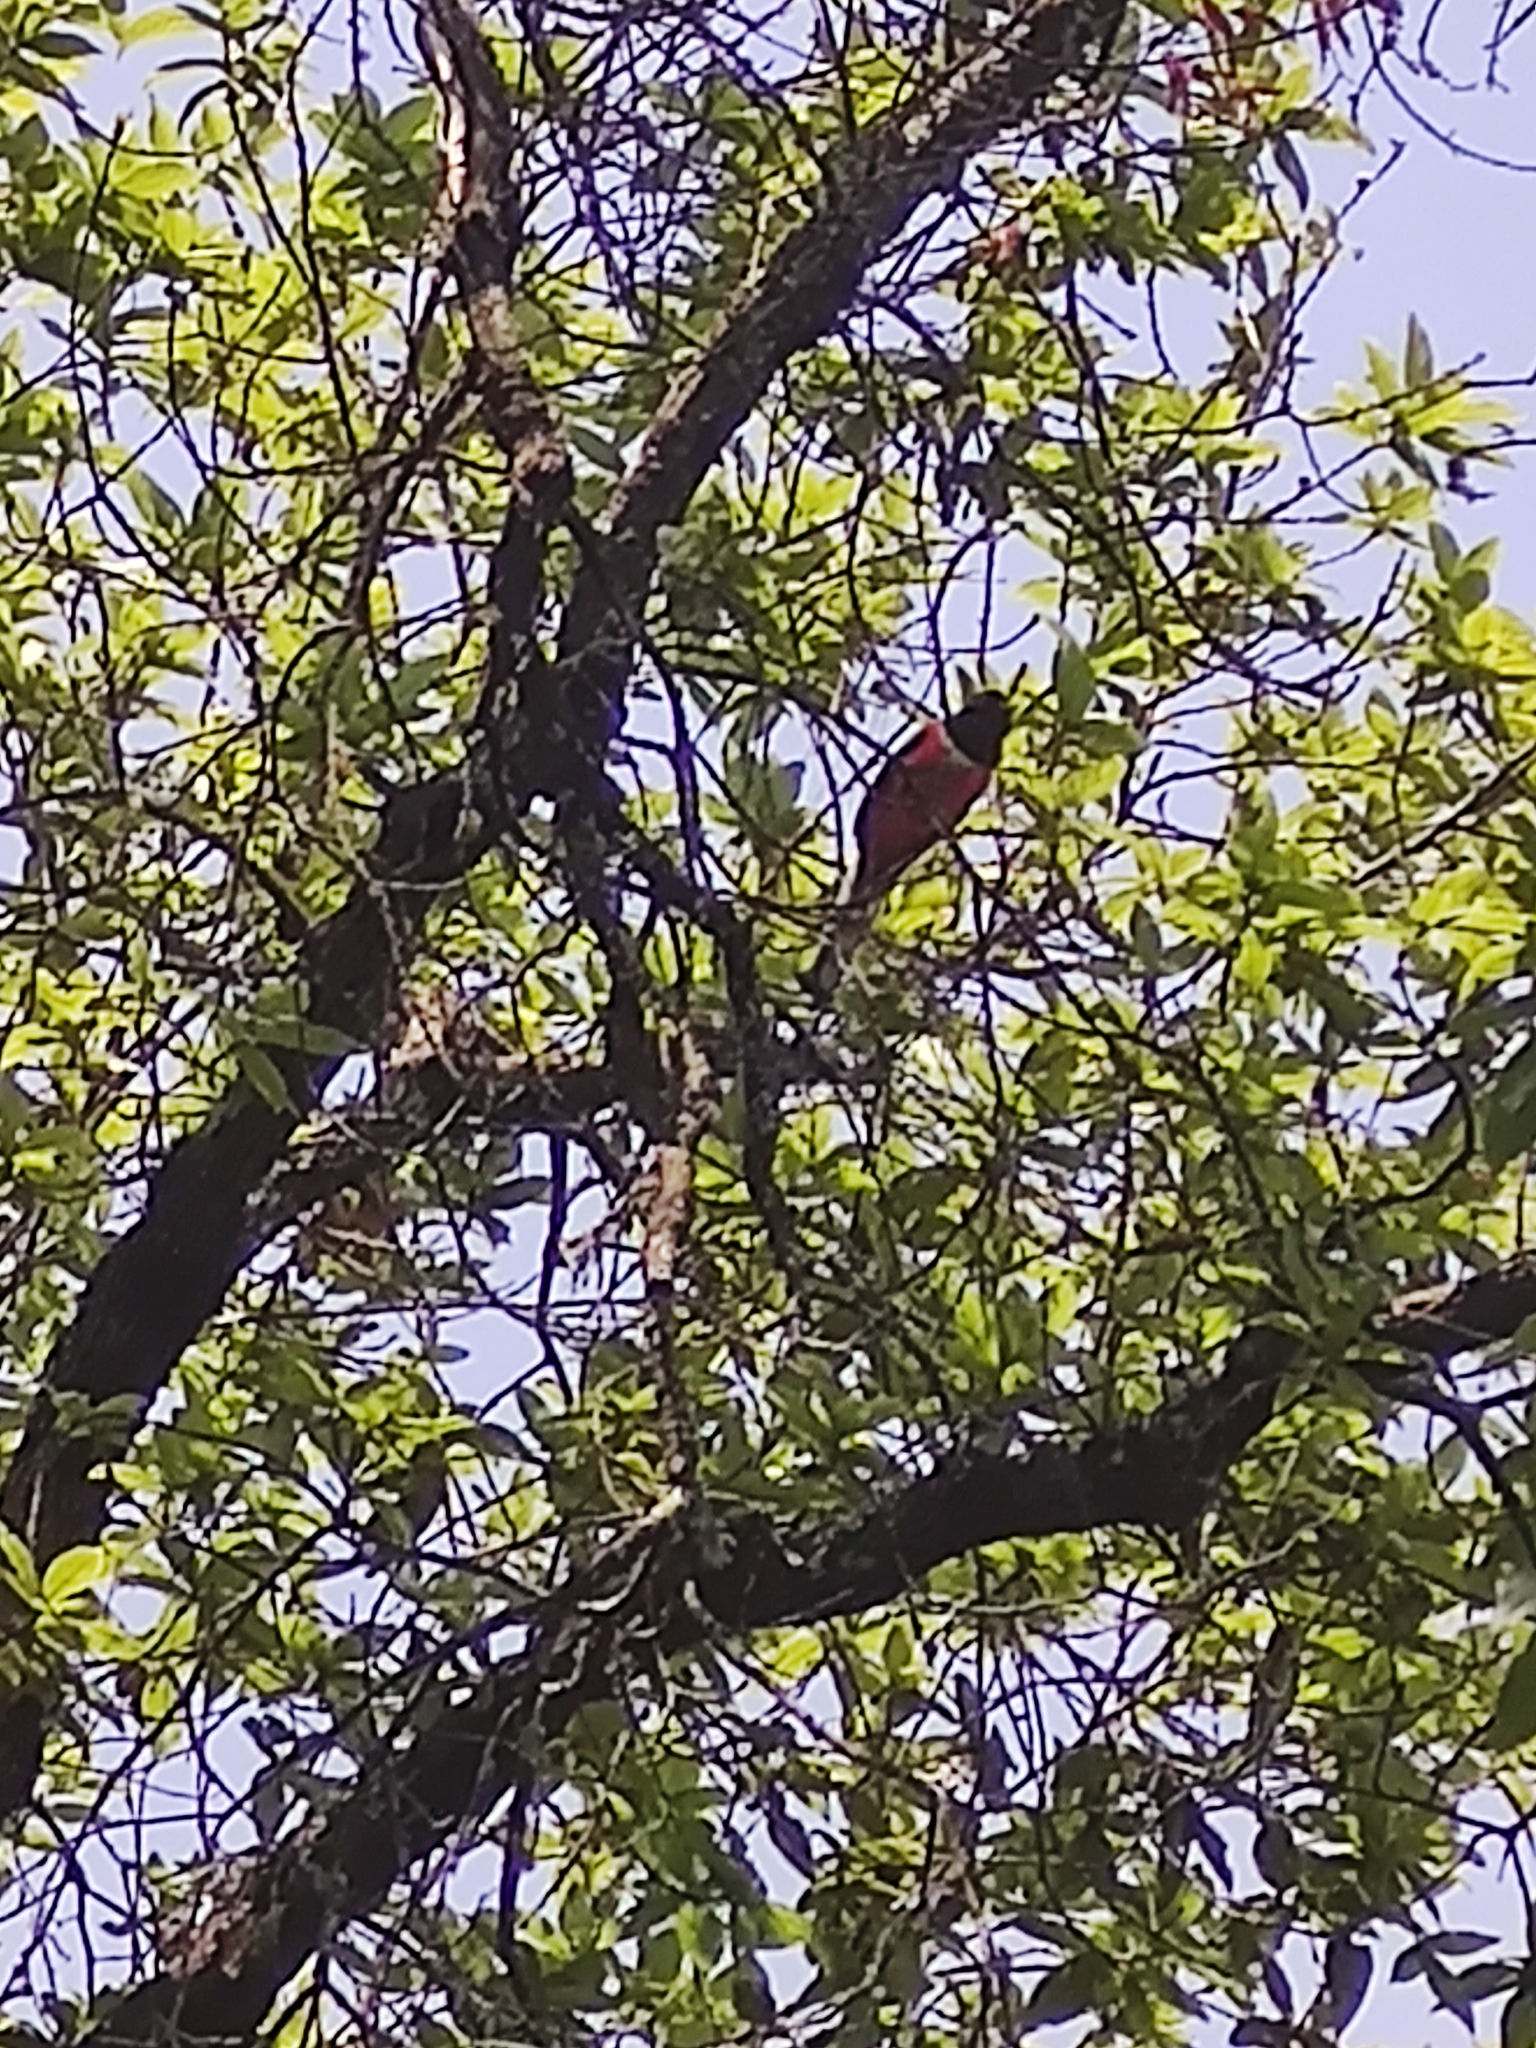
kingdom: Animalia
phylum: Chordata
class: Aves
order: Trogoniformes
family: Trogonidae
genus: Trogon
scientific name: Trogon elegans
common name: Elegant trogon
